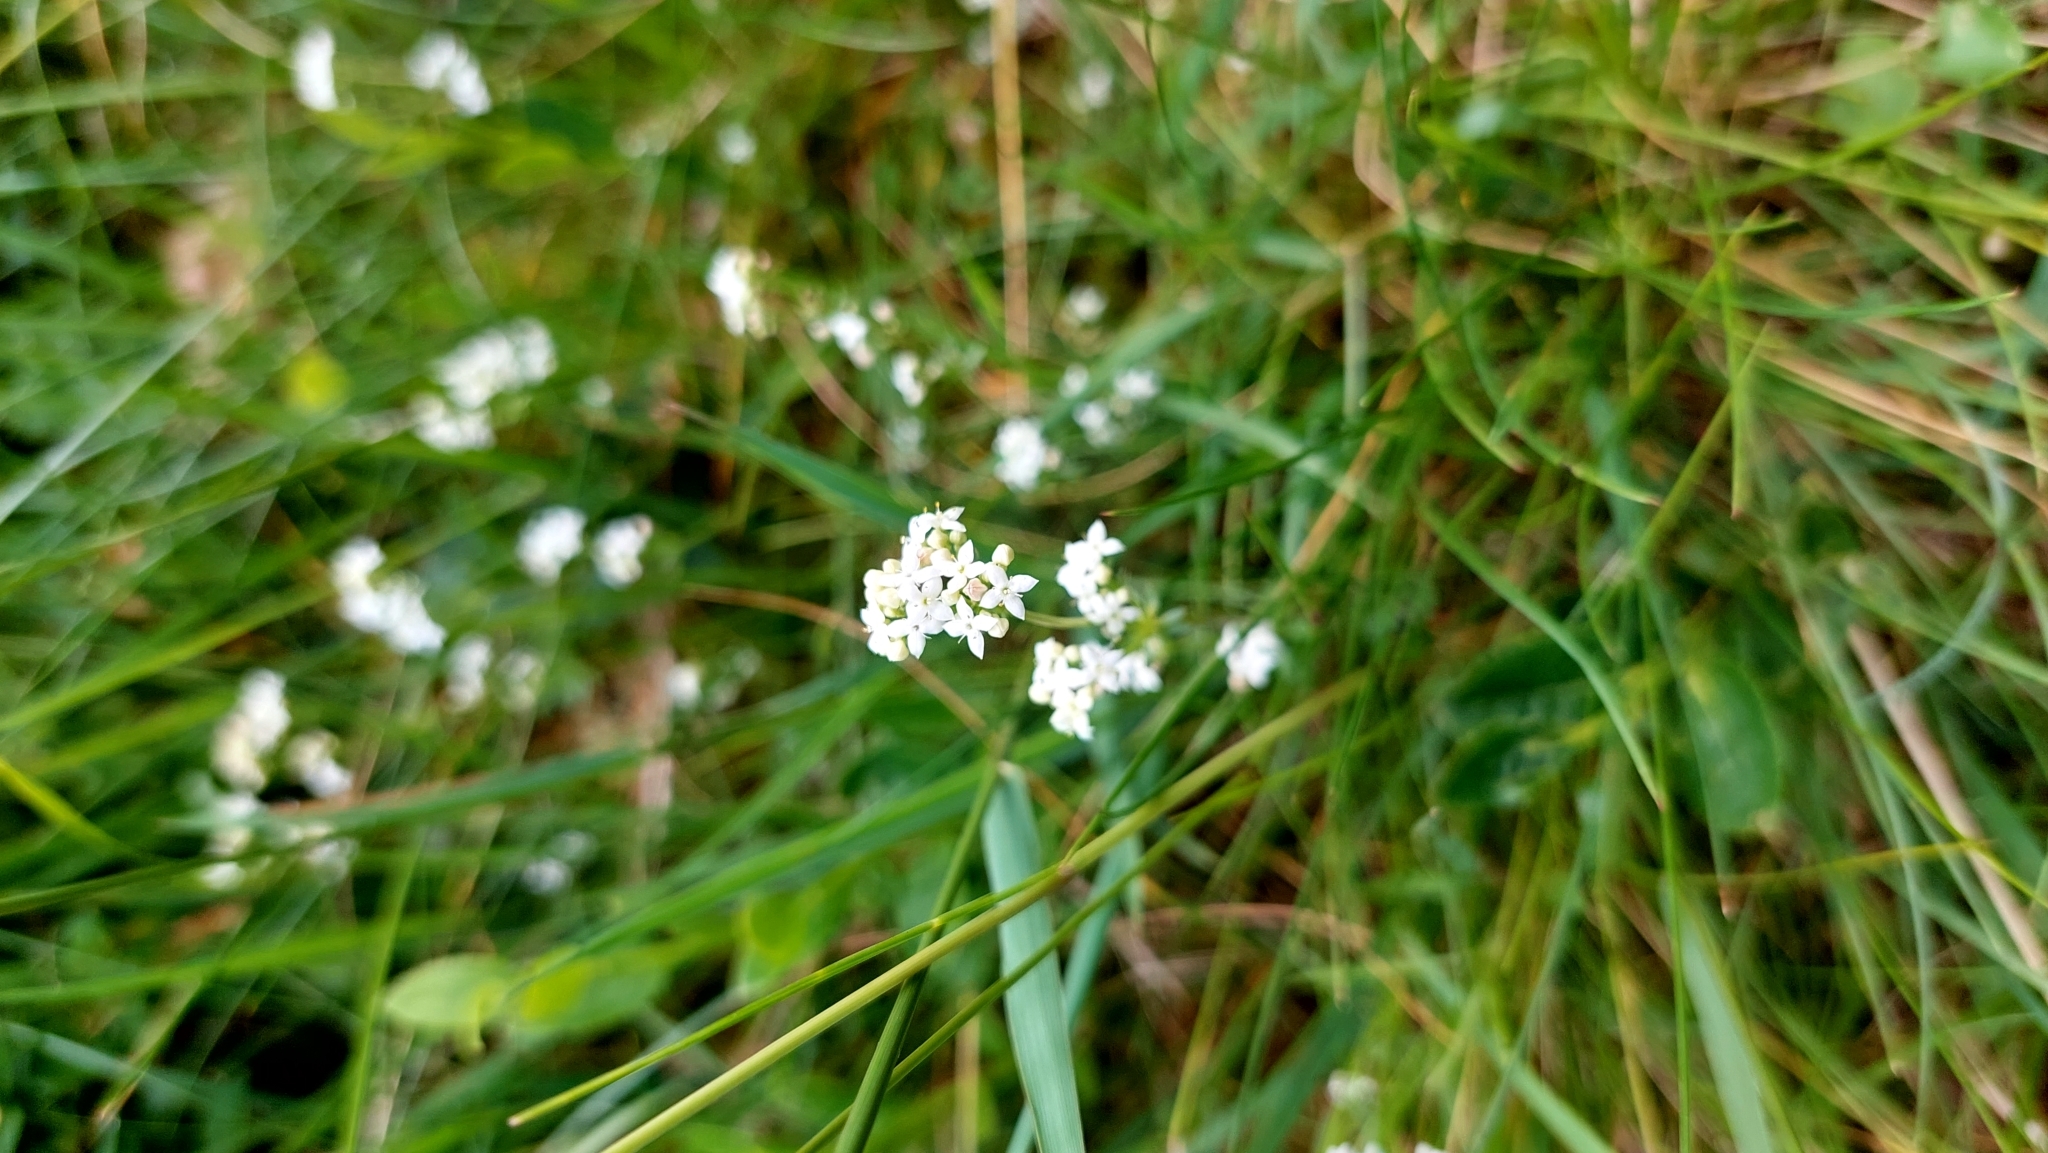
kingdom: Plantae
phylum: Tracheophyta
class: Magnoliopsida
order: Gentianales
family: Rubiaceae
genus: Galium
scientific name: Galium saxatile
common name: Heath bedstraw
